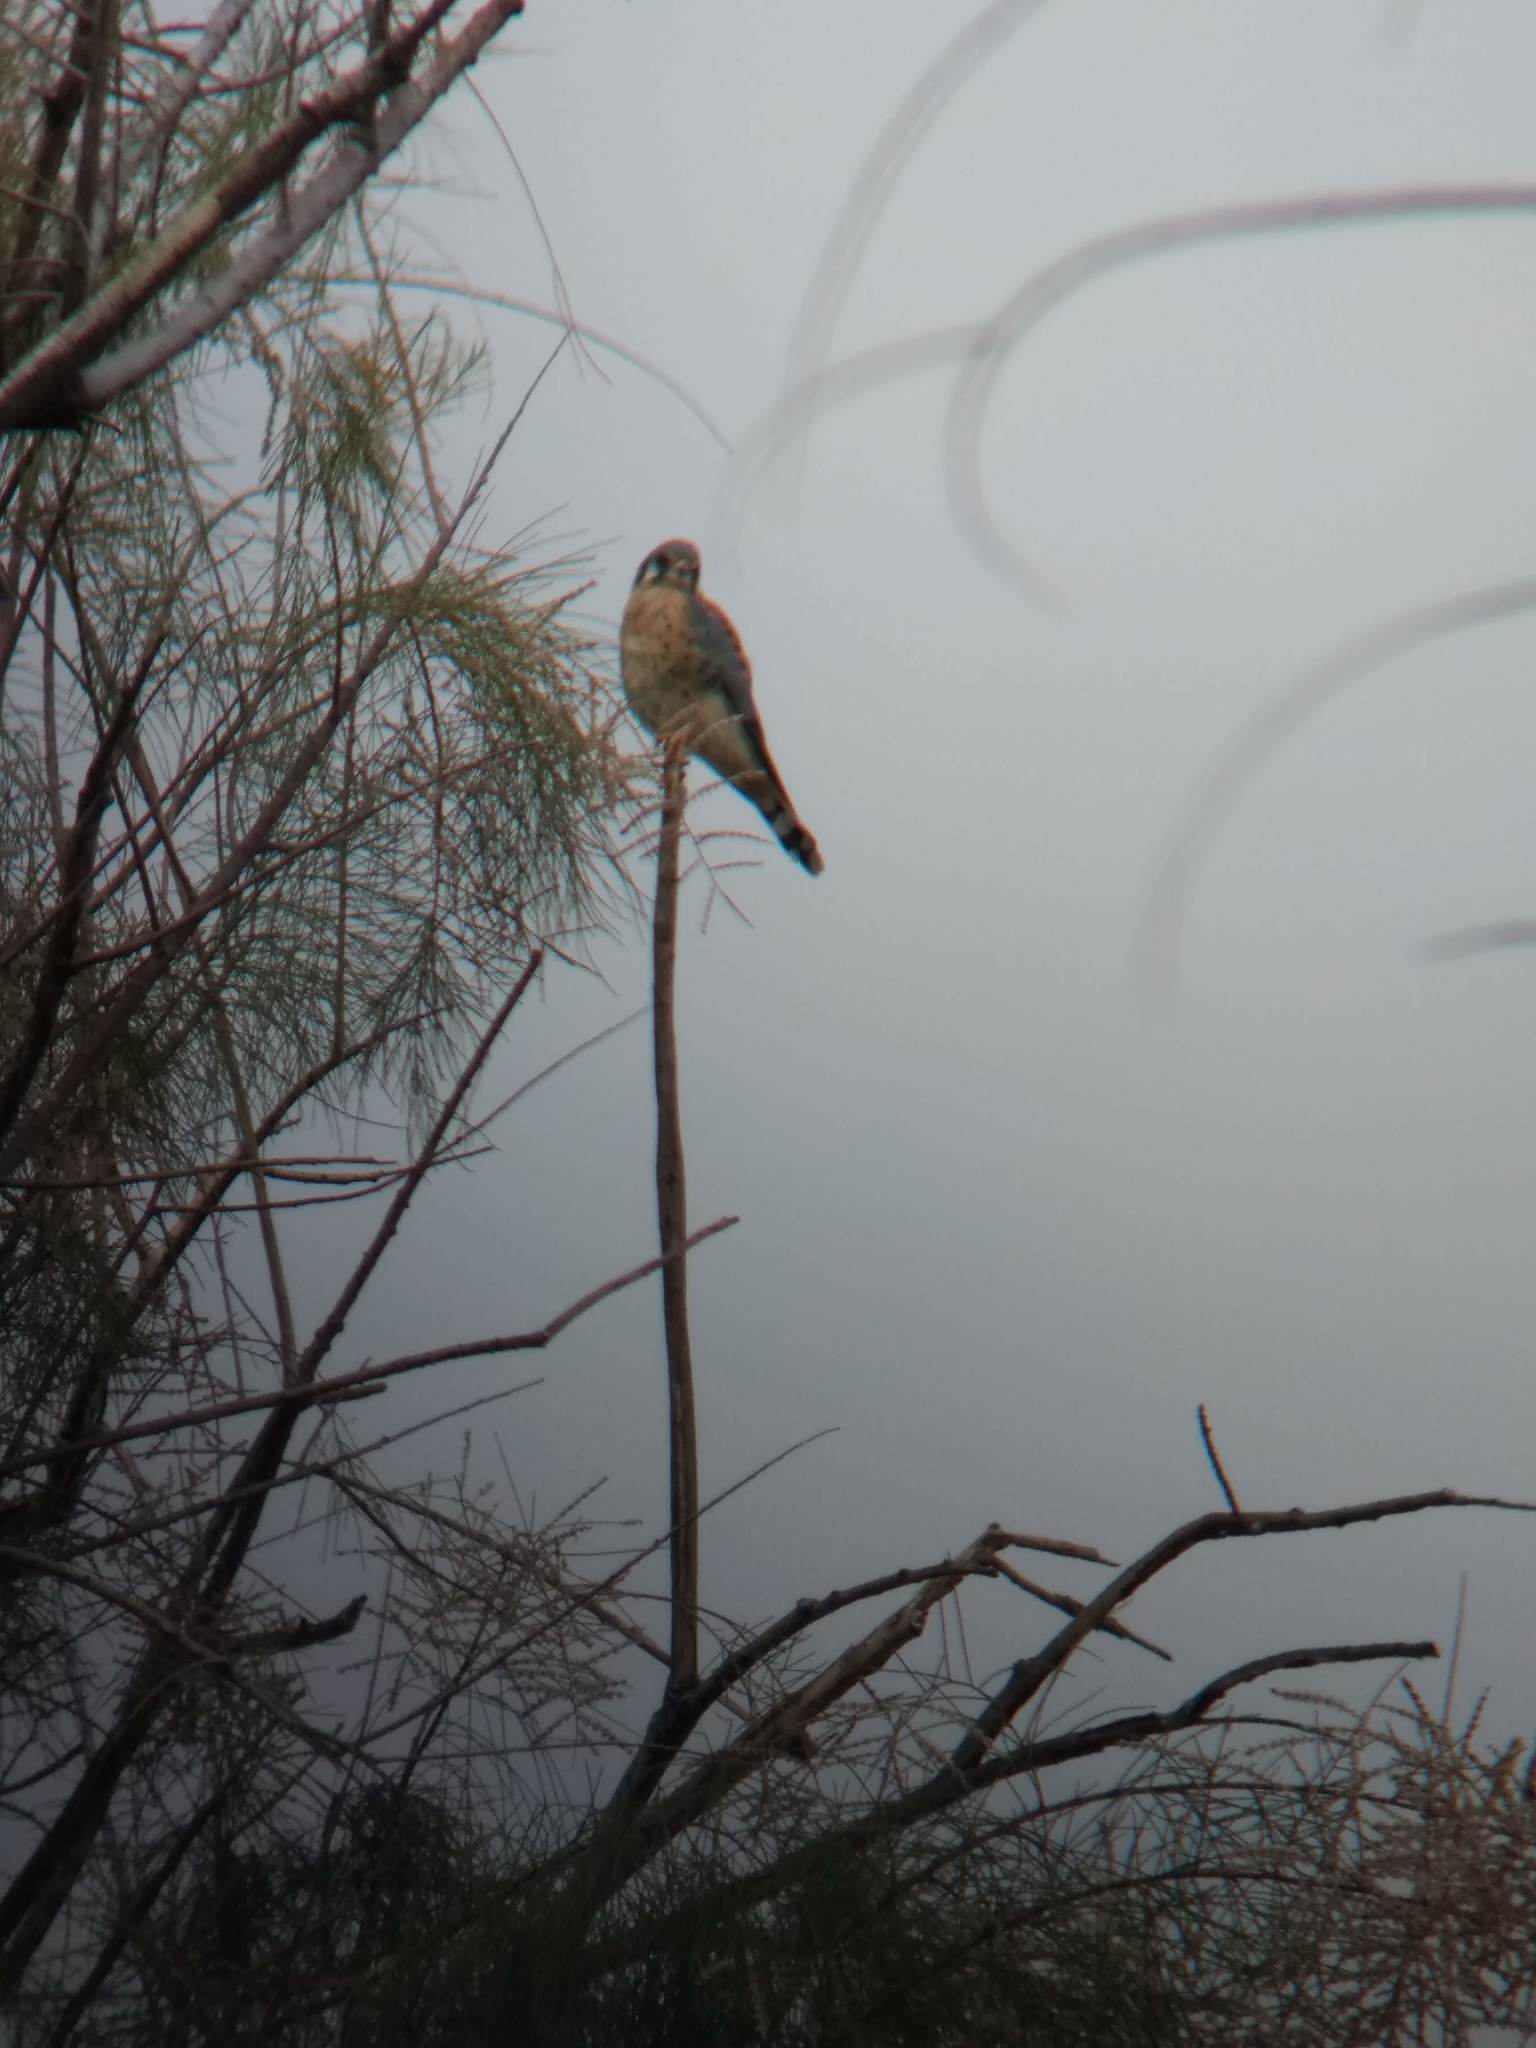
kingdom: Animalia
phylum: Chordata
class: Aves
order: Falconiformes
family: Falconidae
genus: Falco
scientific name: Falco sparverius
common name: American kestrel
